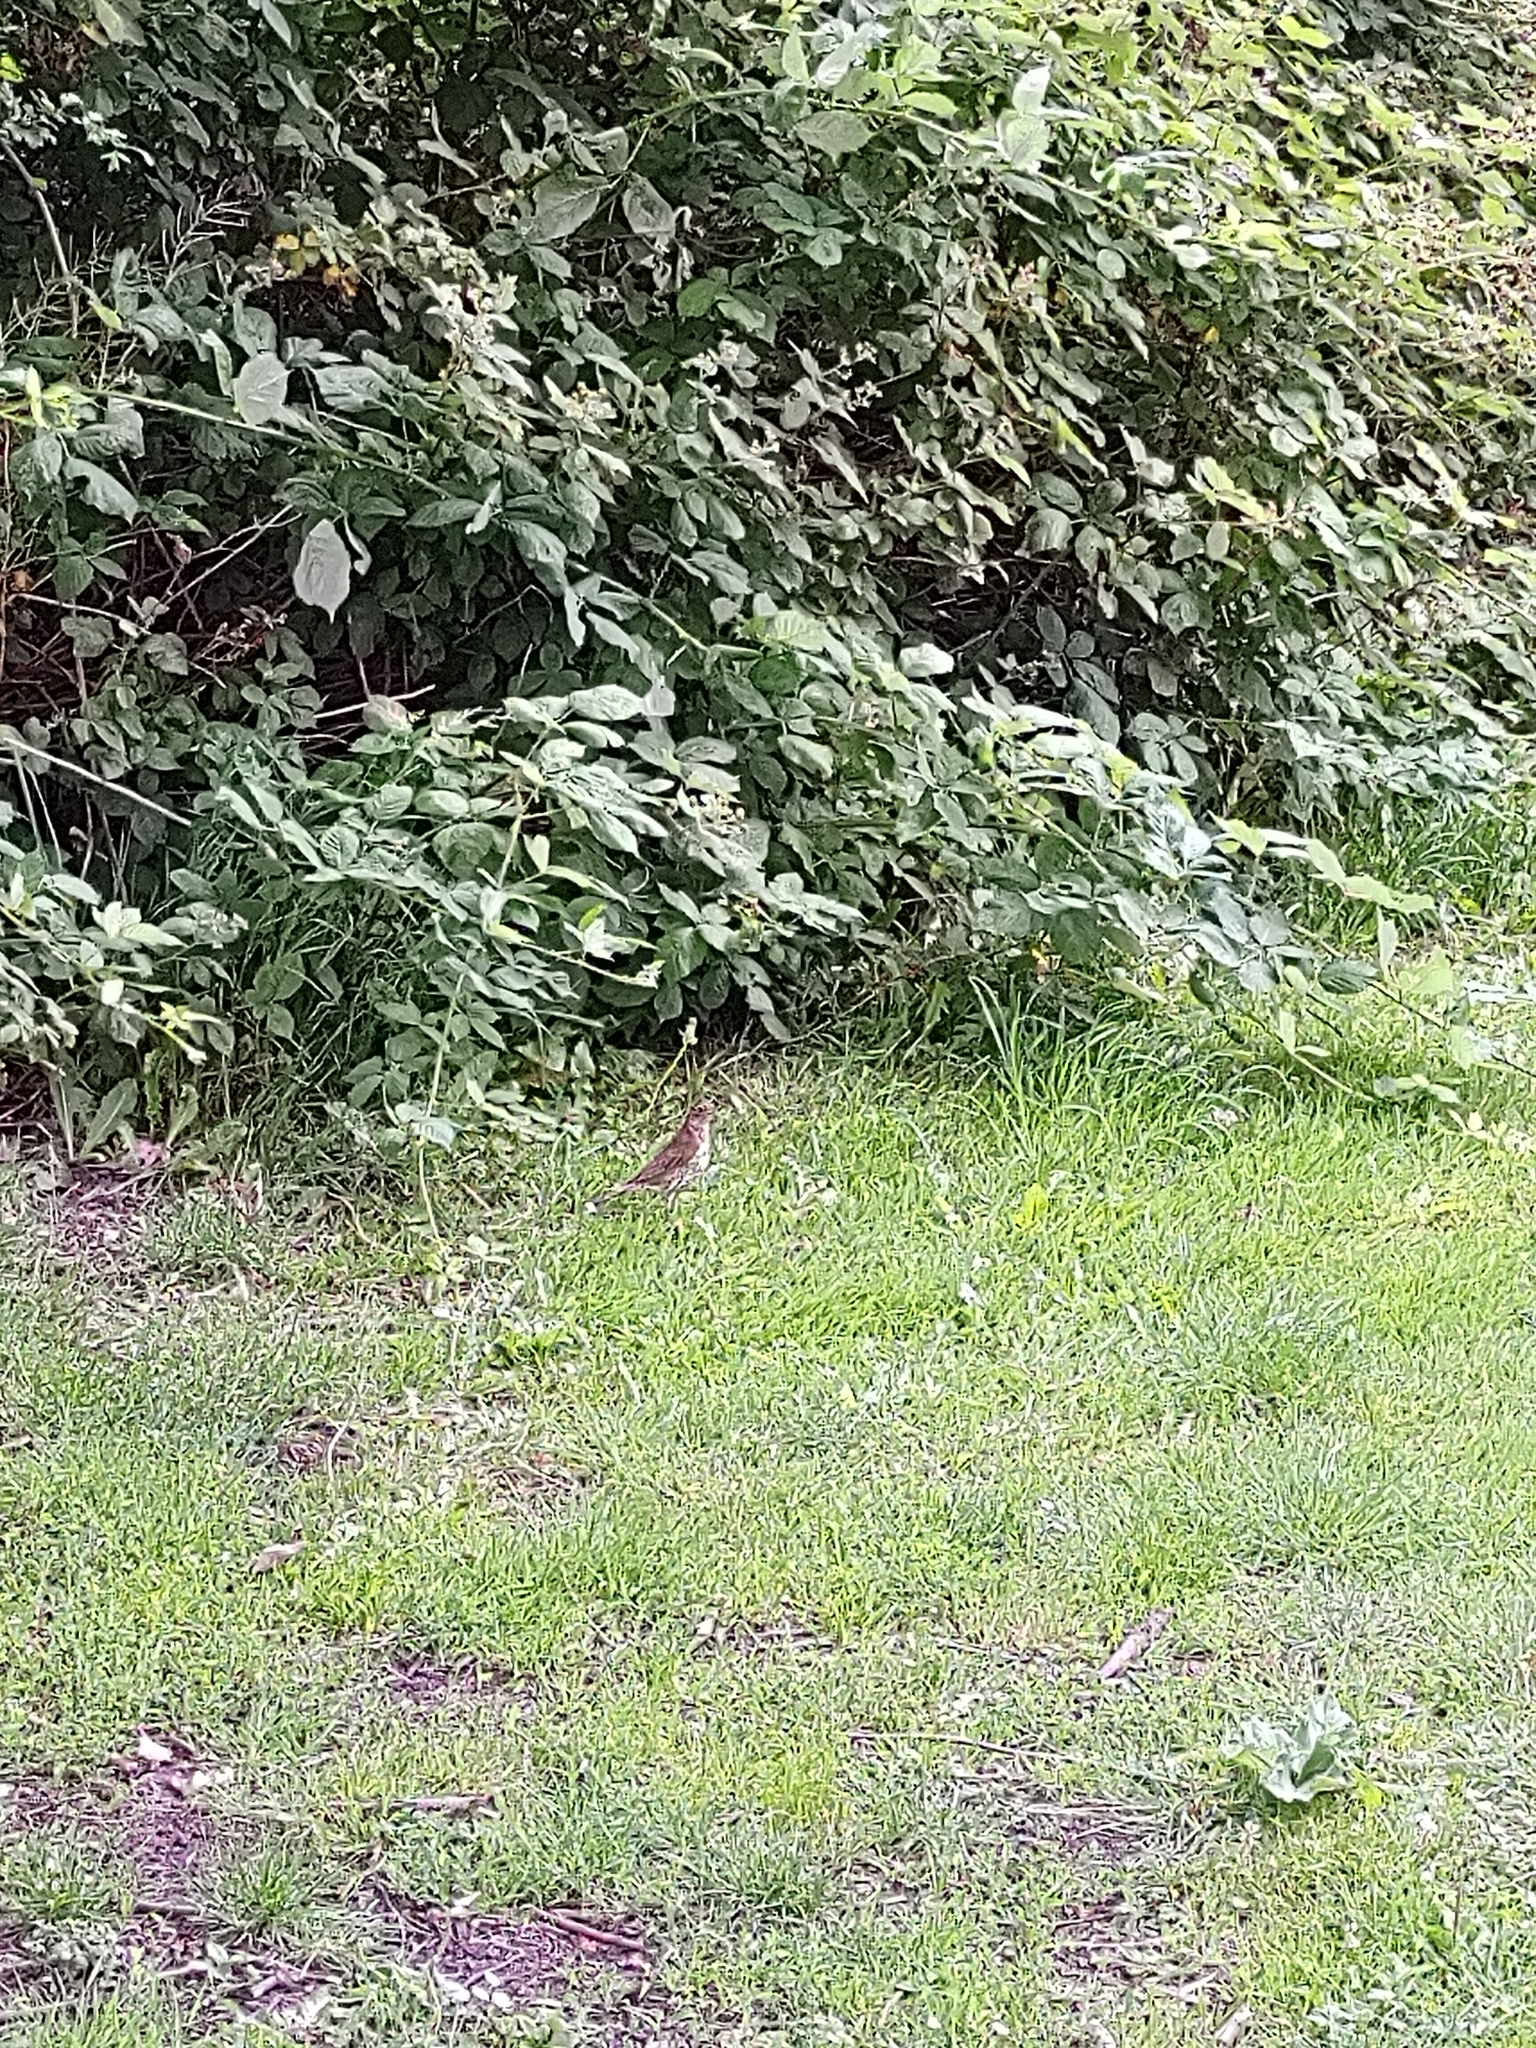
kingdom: Animalia
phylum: Chordata
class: Aves
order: Passeriformes
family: Turdidae
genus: Turdus
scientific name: Turdus philomelos
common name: Song thrush
